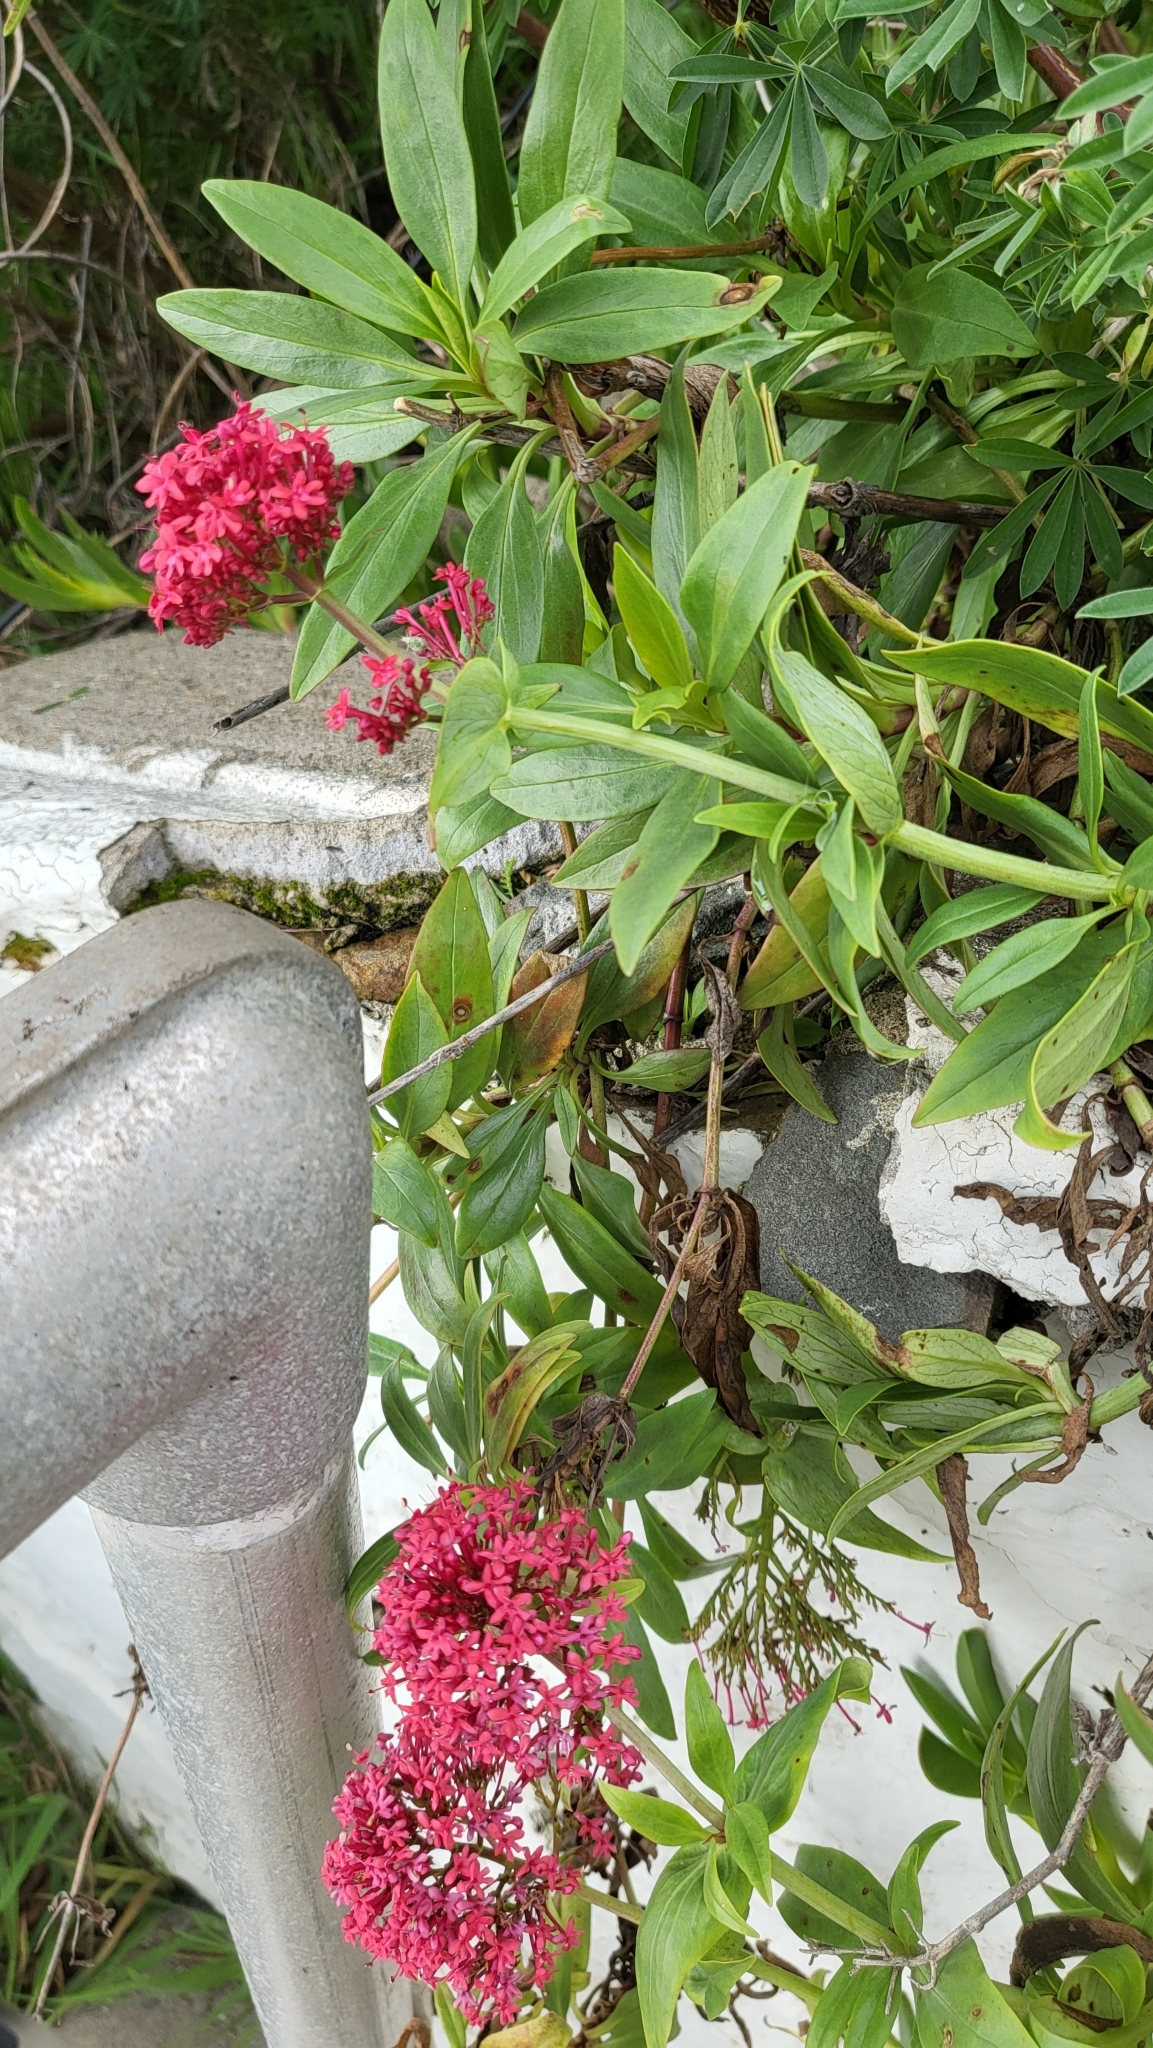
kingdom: Plantae
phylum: Tracheophyta
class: Magnoliopsida
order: Dipsacales
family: Caprifoliaceae
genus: Centranthus
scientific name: Centranthus ruber
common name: Red valerian
